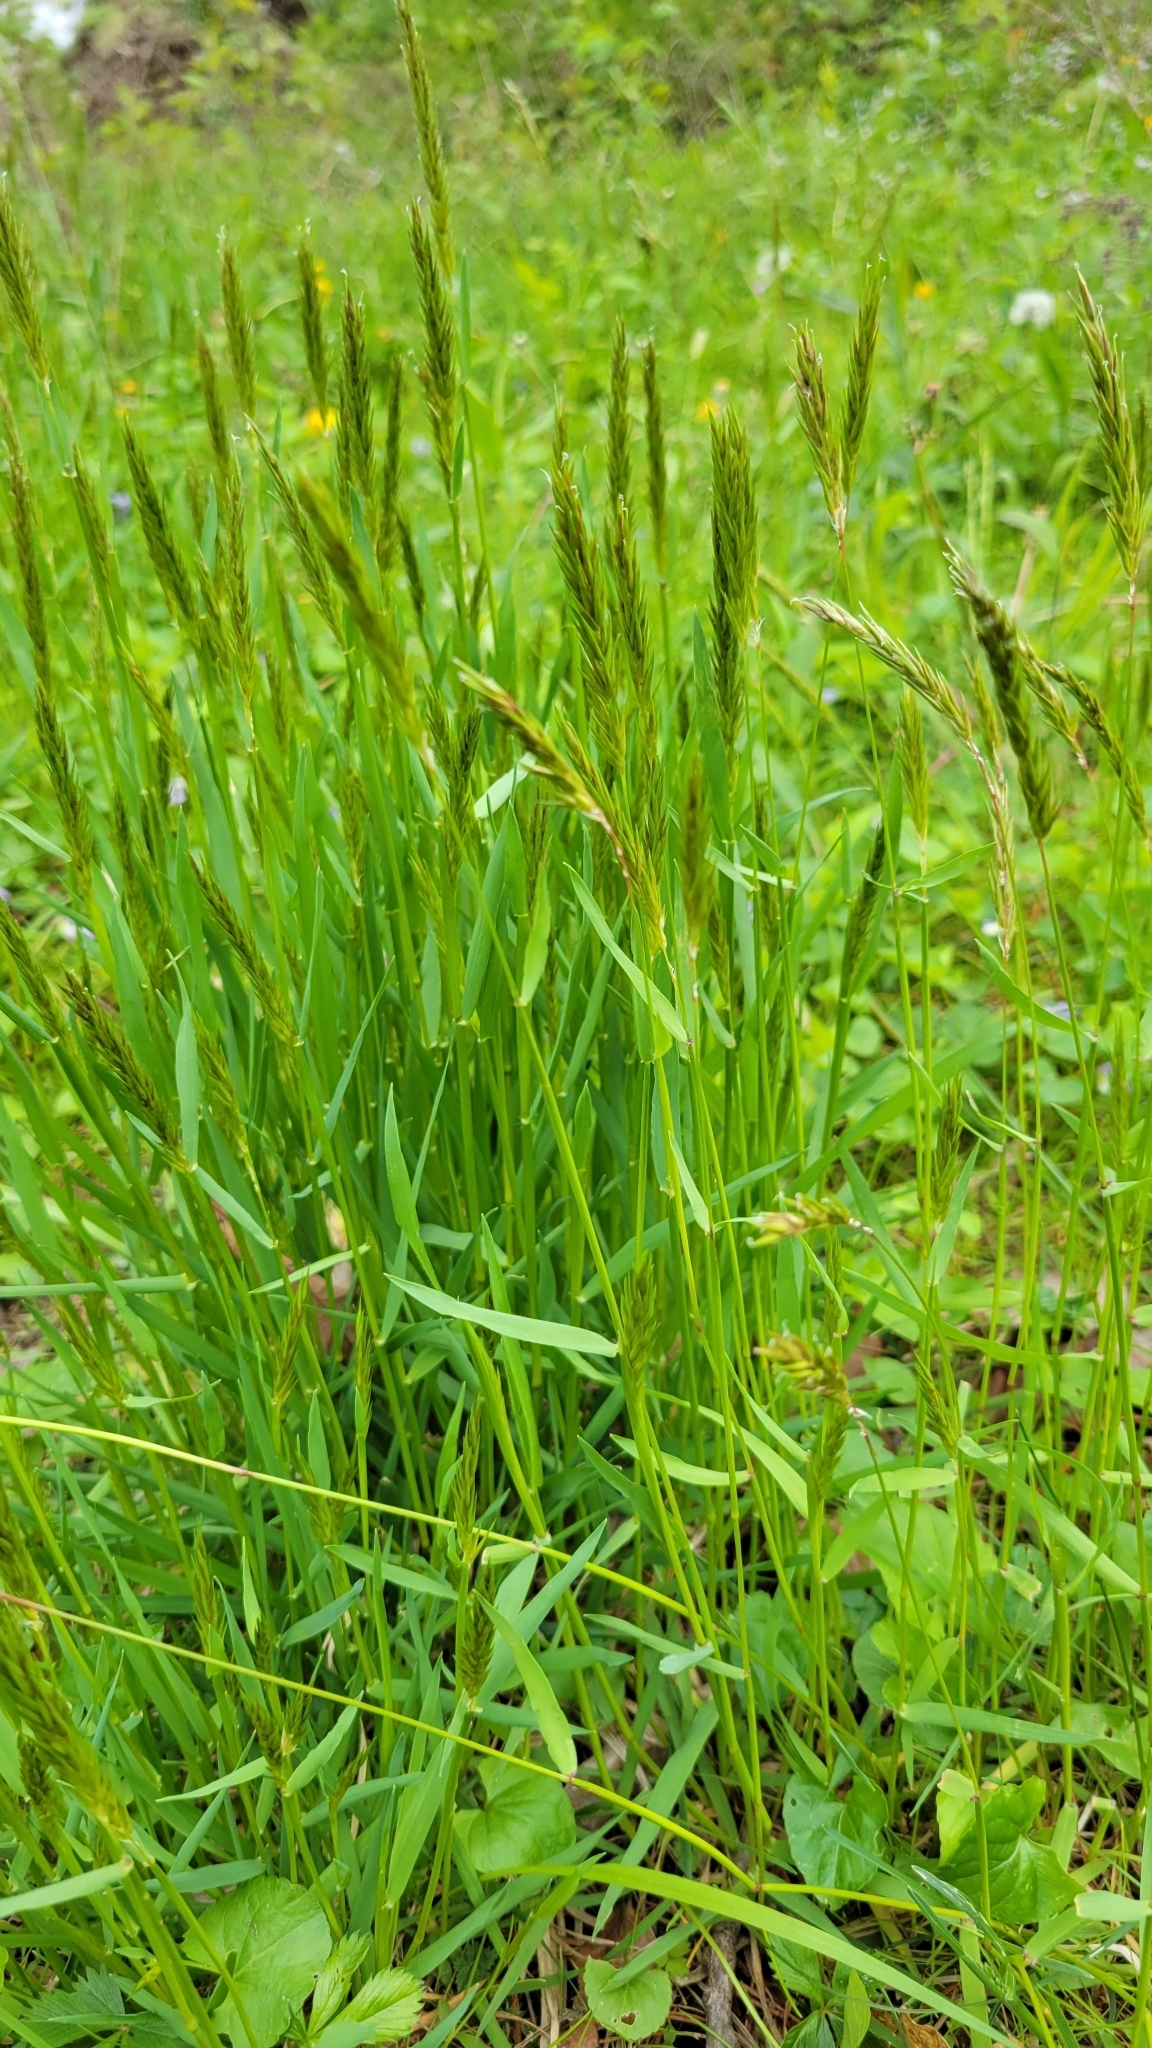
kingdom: Plantae
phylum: Tracheophyta
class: Liliopsida
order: Poales
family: Poaceae
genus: Anthoxanthum
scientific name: Anthoxanthum odoratum
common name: Sweet vernalgrass
